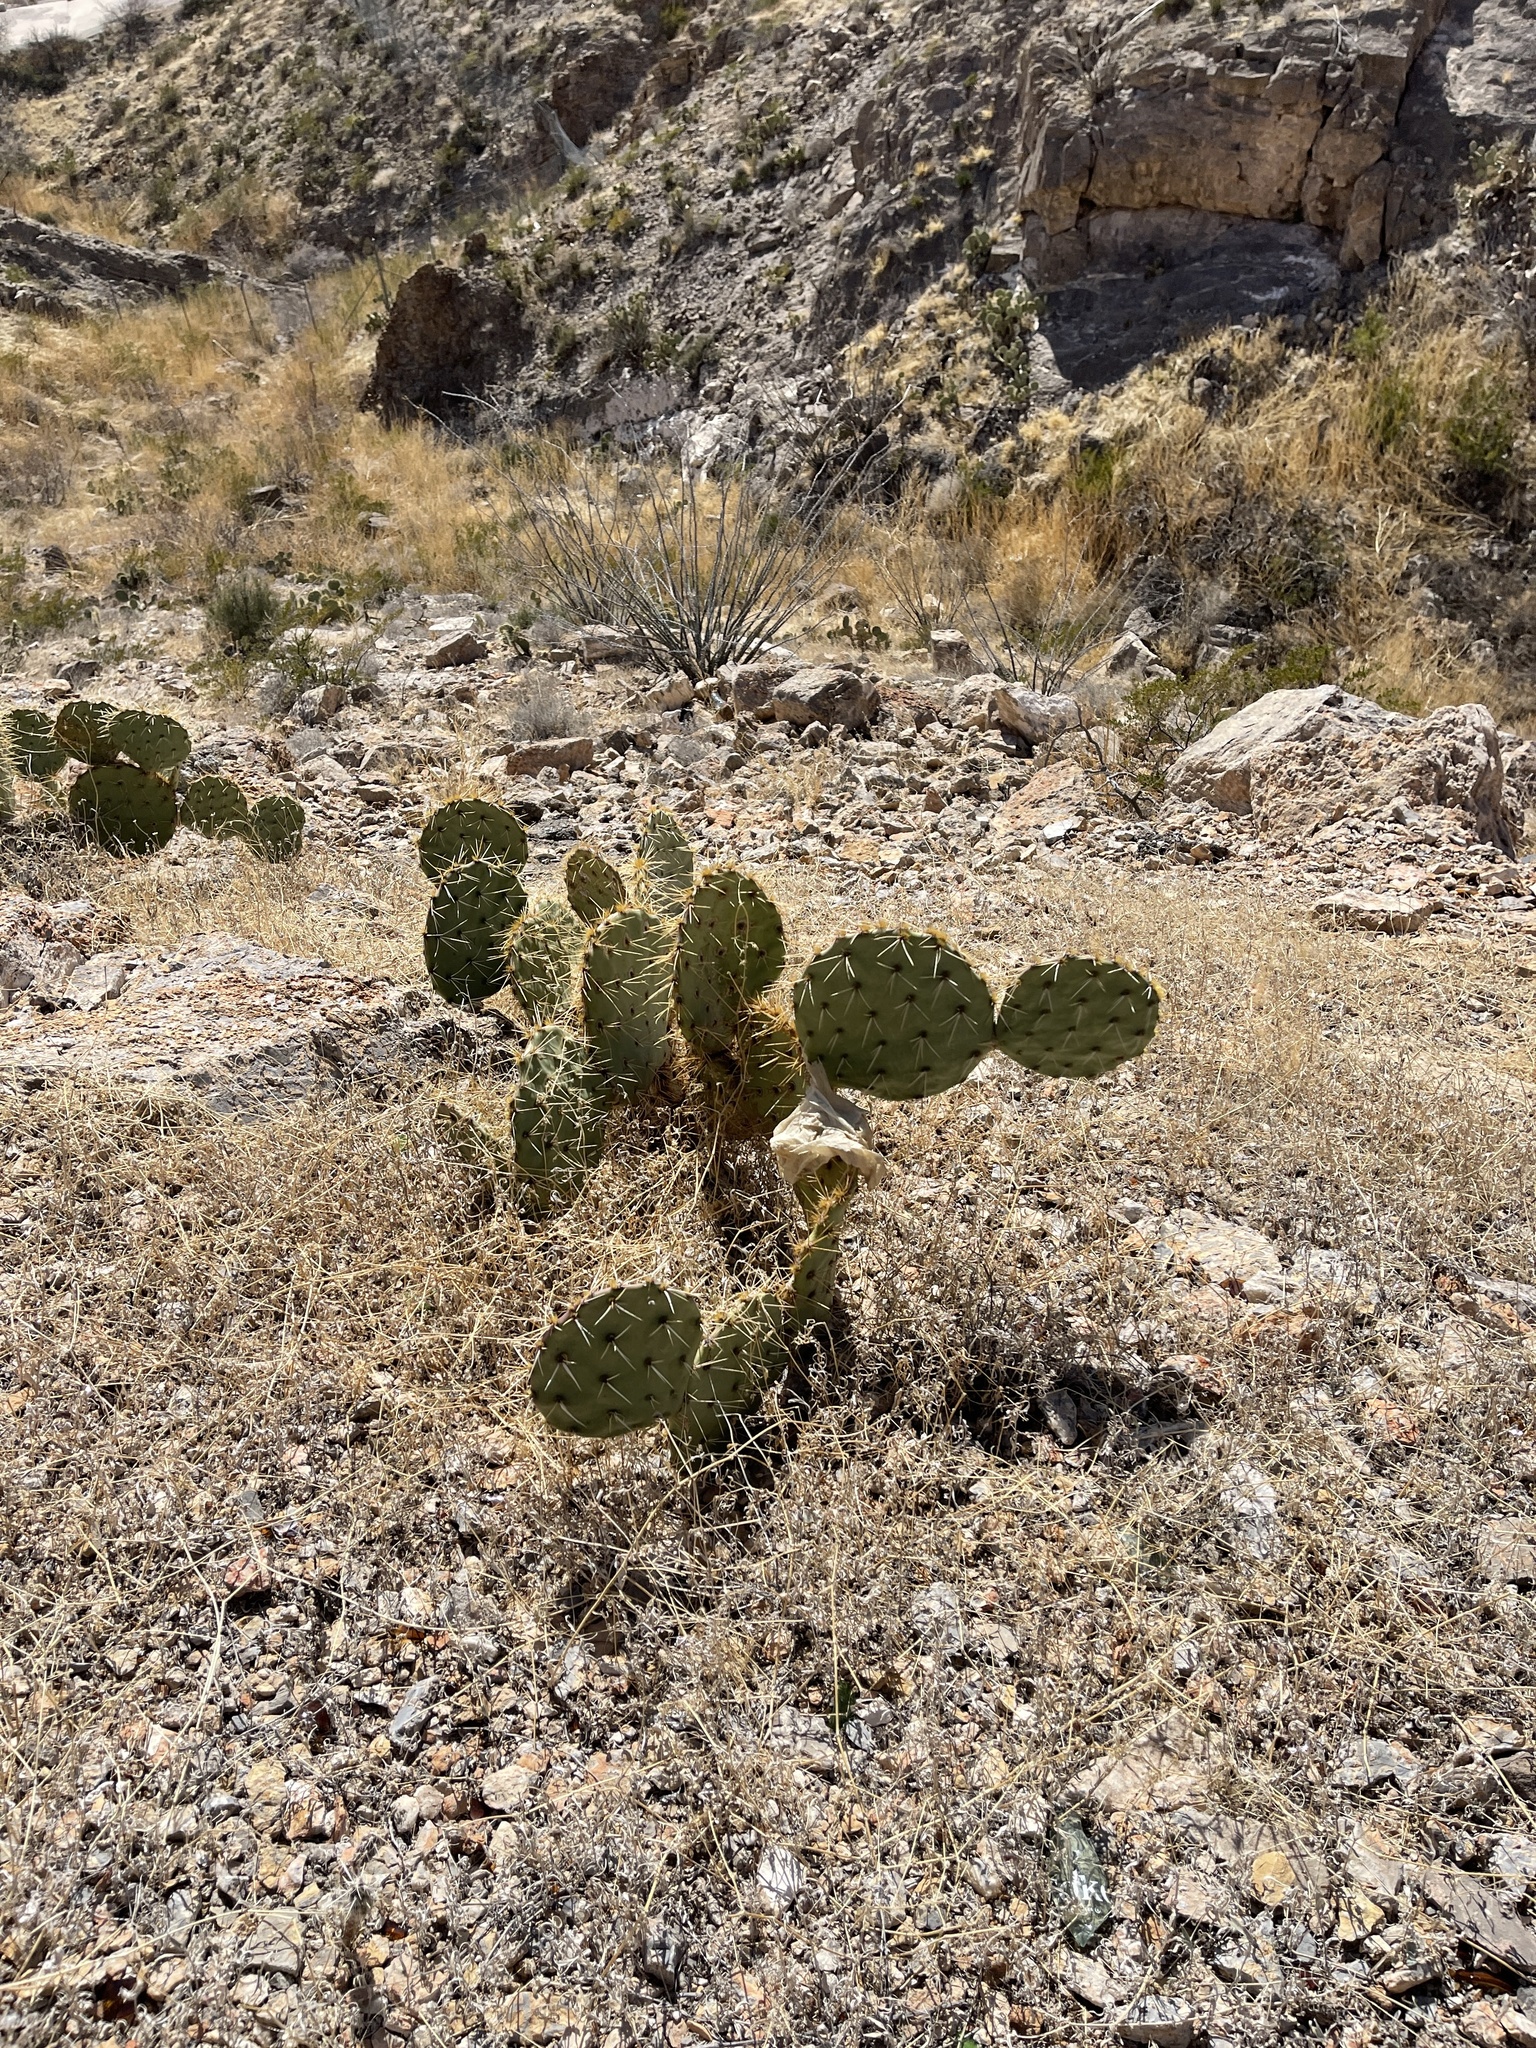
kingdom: Plantae
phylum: Tracheophyta
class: Magnoliopsida
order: Caryophyllales
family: Cactaceae
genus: Opuntia
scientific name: Opuntia engelmannii
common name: Cactus-apple
